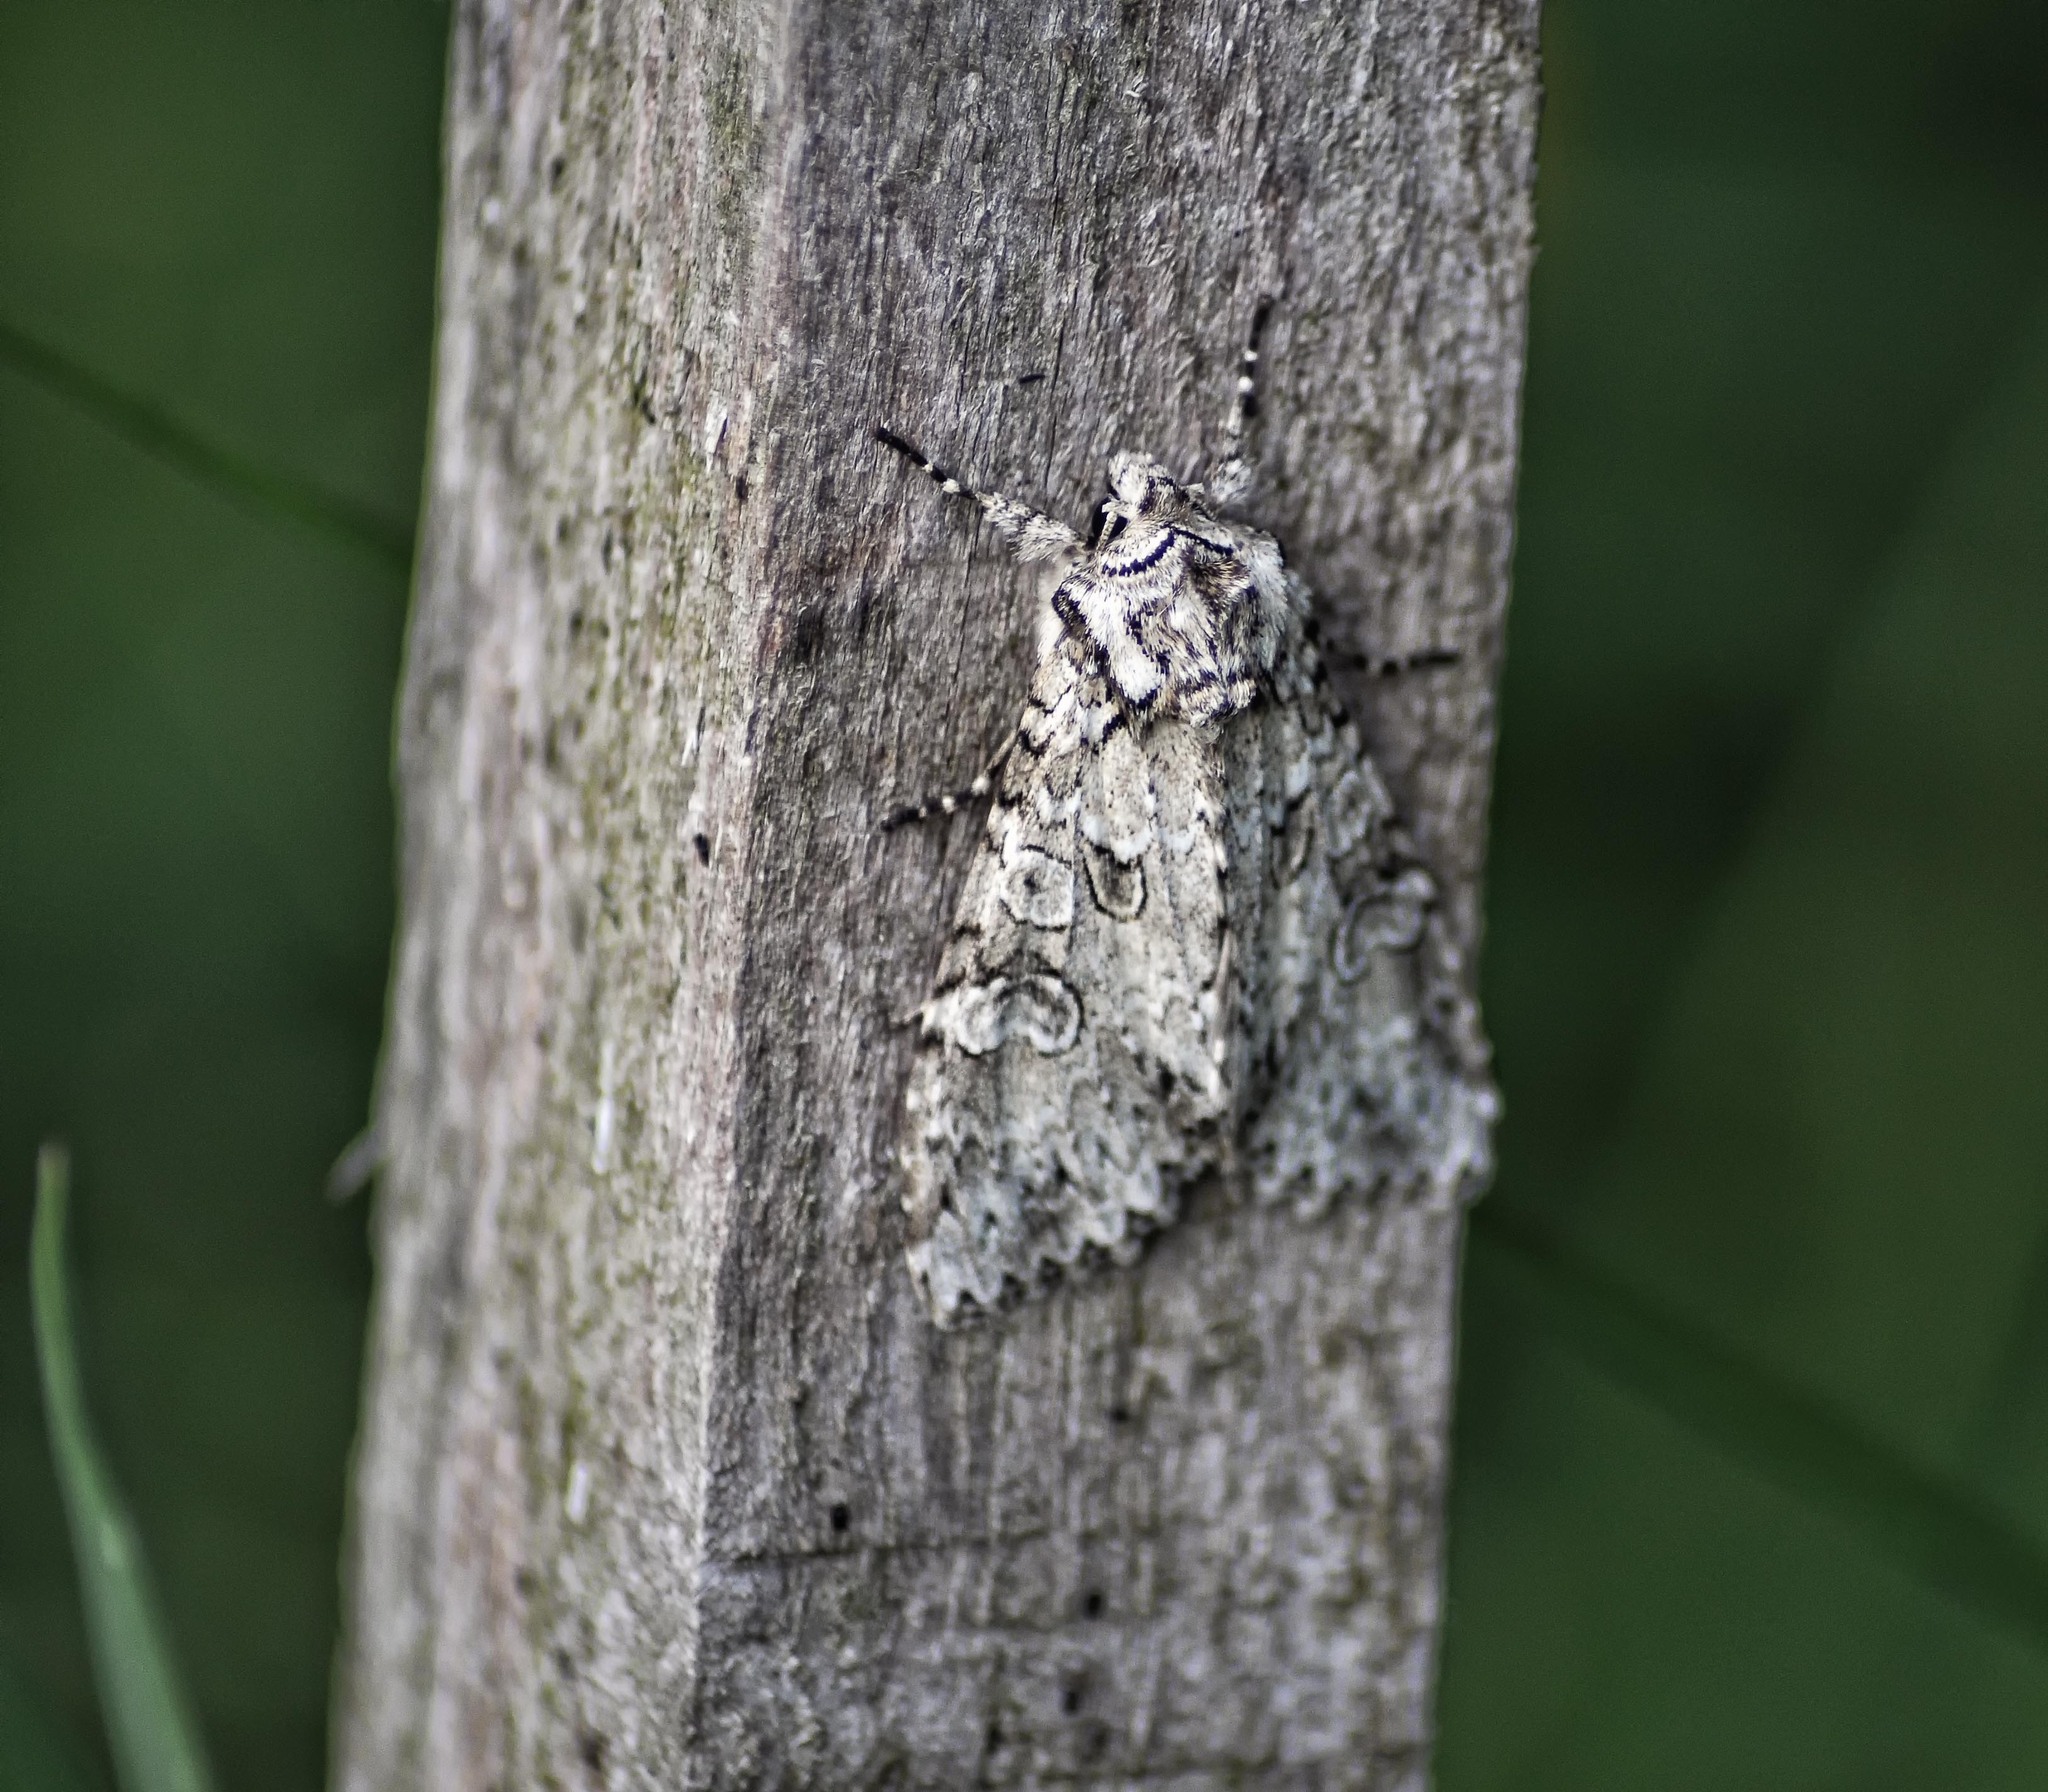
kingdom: Animalia
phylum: Arthropoda
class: Insecta
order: Lepidoptera
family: Noctuidae
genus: Polia
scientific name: Polia nebulosa
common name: Grey arches
